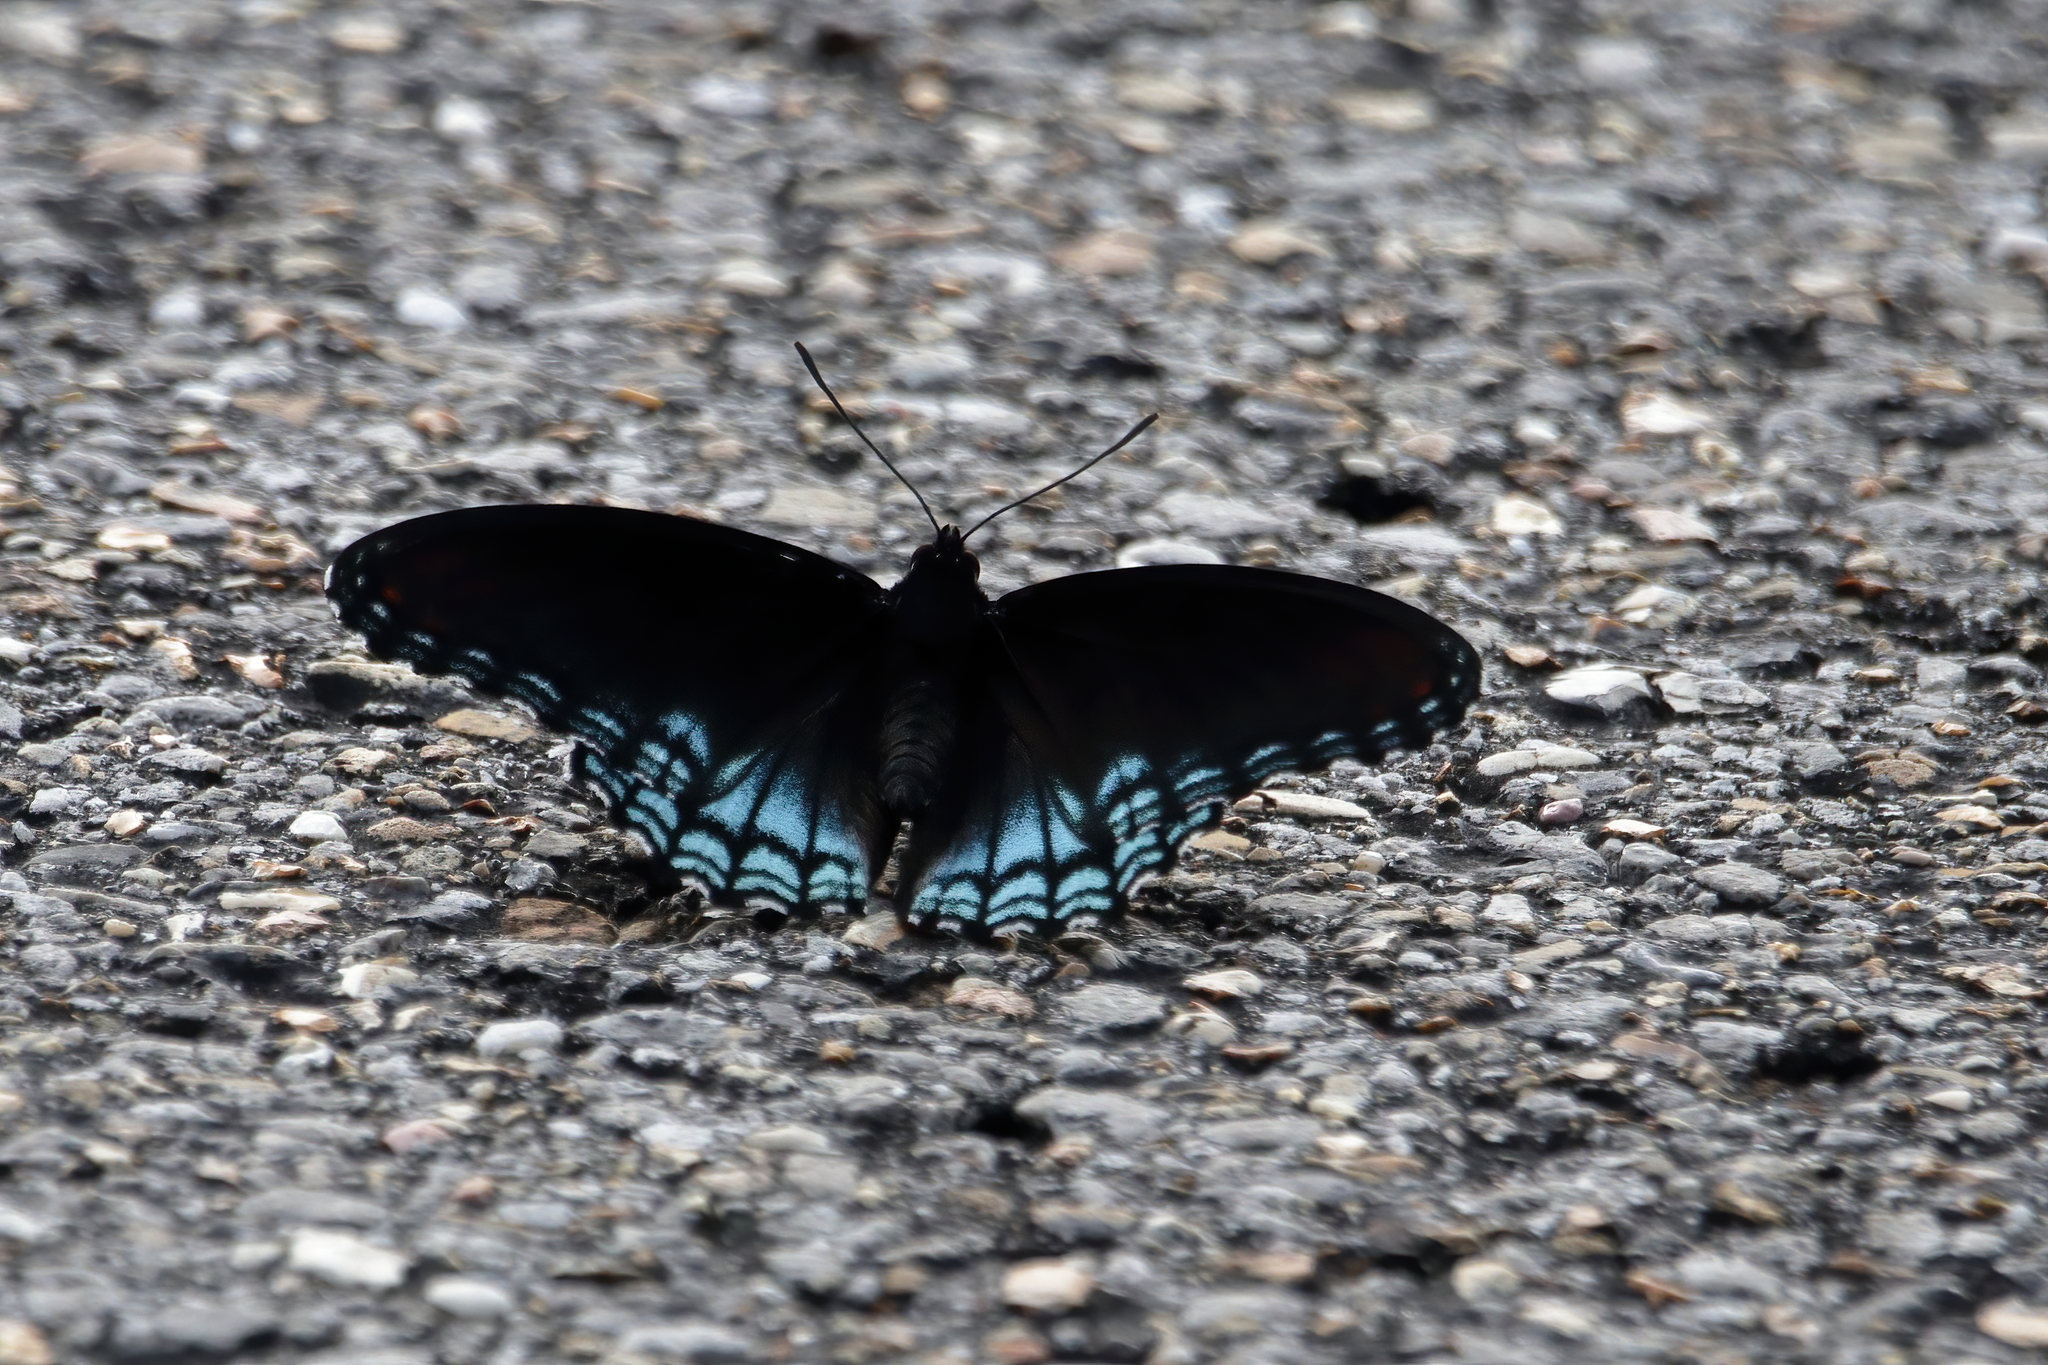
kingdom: Animalia
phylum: Arthropoda
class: Insecta
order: Lepidoptera
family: Nymphalidae
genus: Limenitis
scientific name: Limenitis arthemis
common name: Red-spotted admiral
